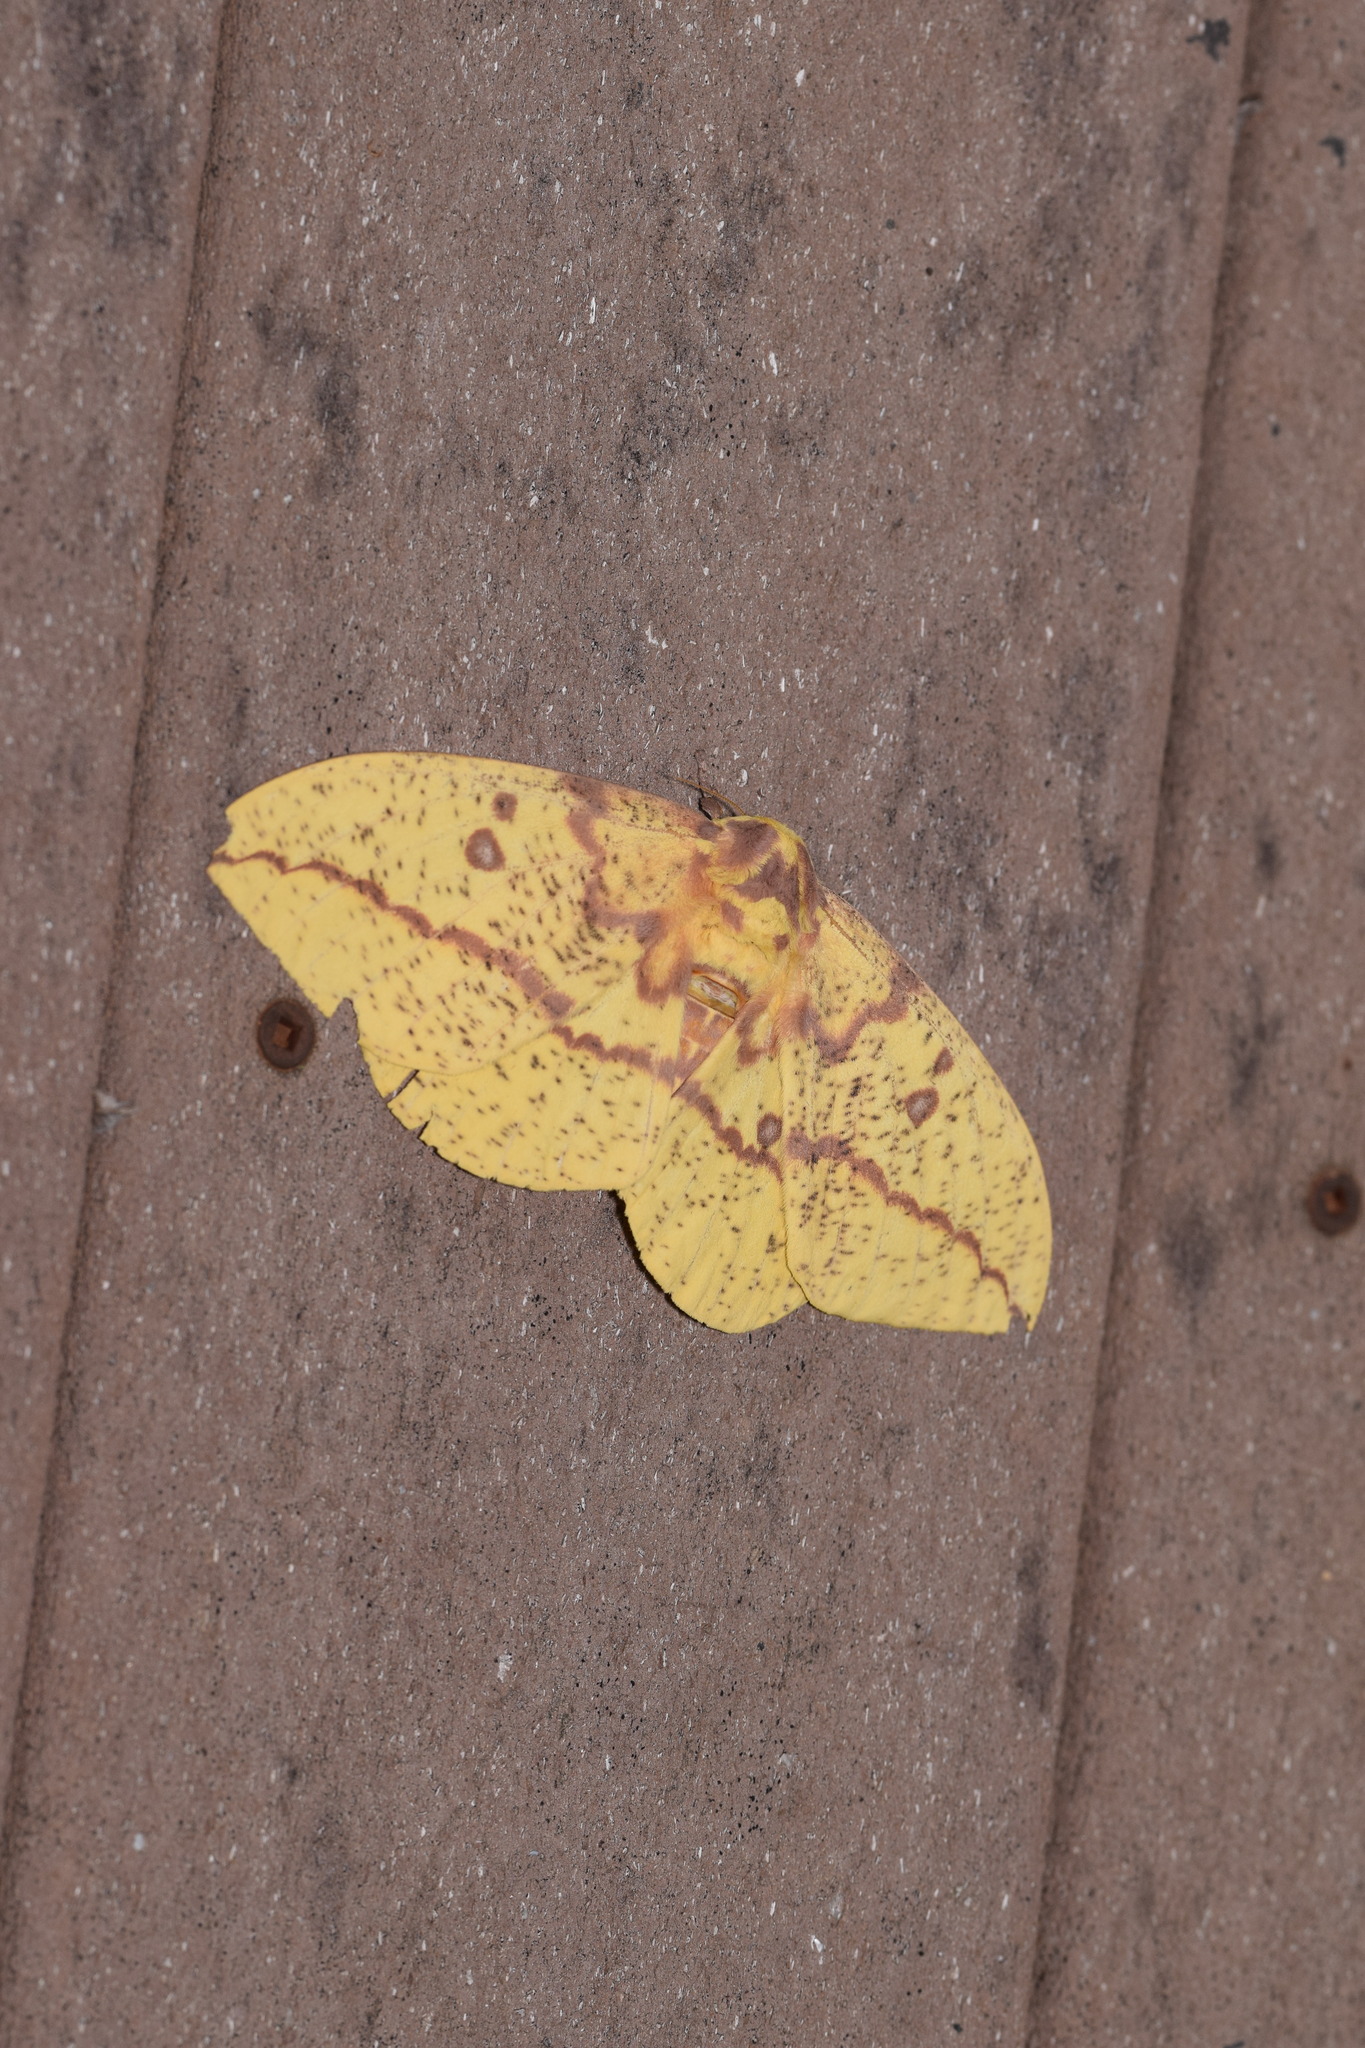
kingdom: Animalia
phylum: Arthropoda
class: Insecta
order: Lepidoptera
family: Saturniidae
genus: Eacles
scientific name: Eacles imperialis
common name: Imperial moth
